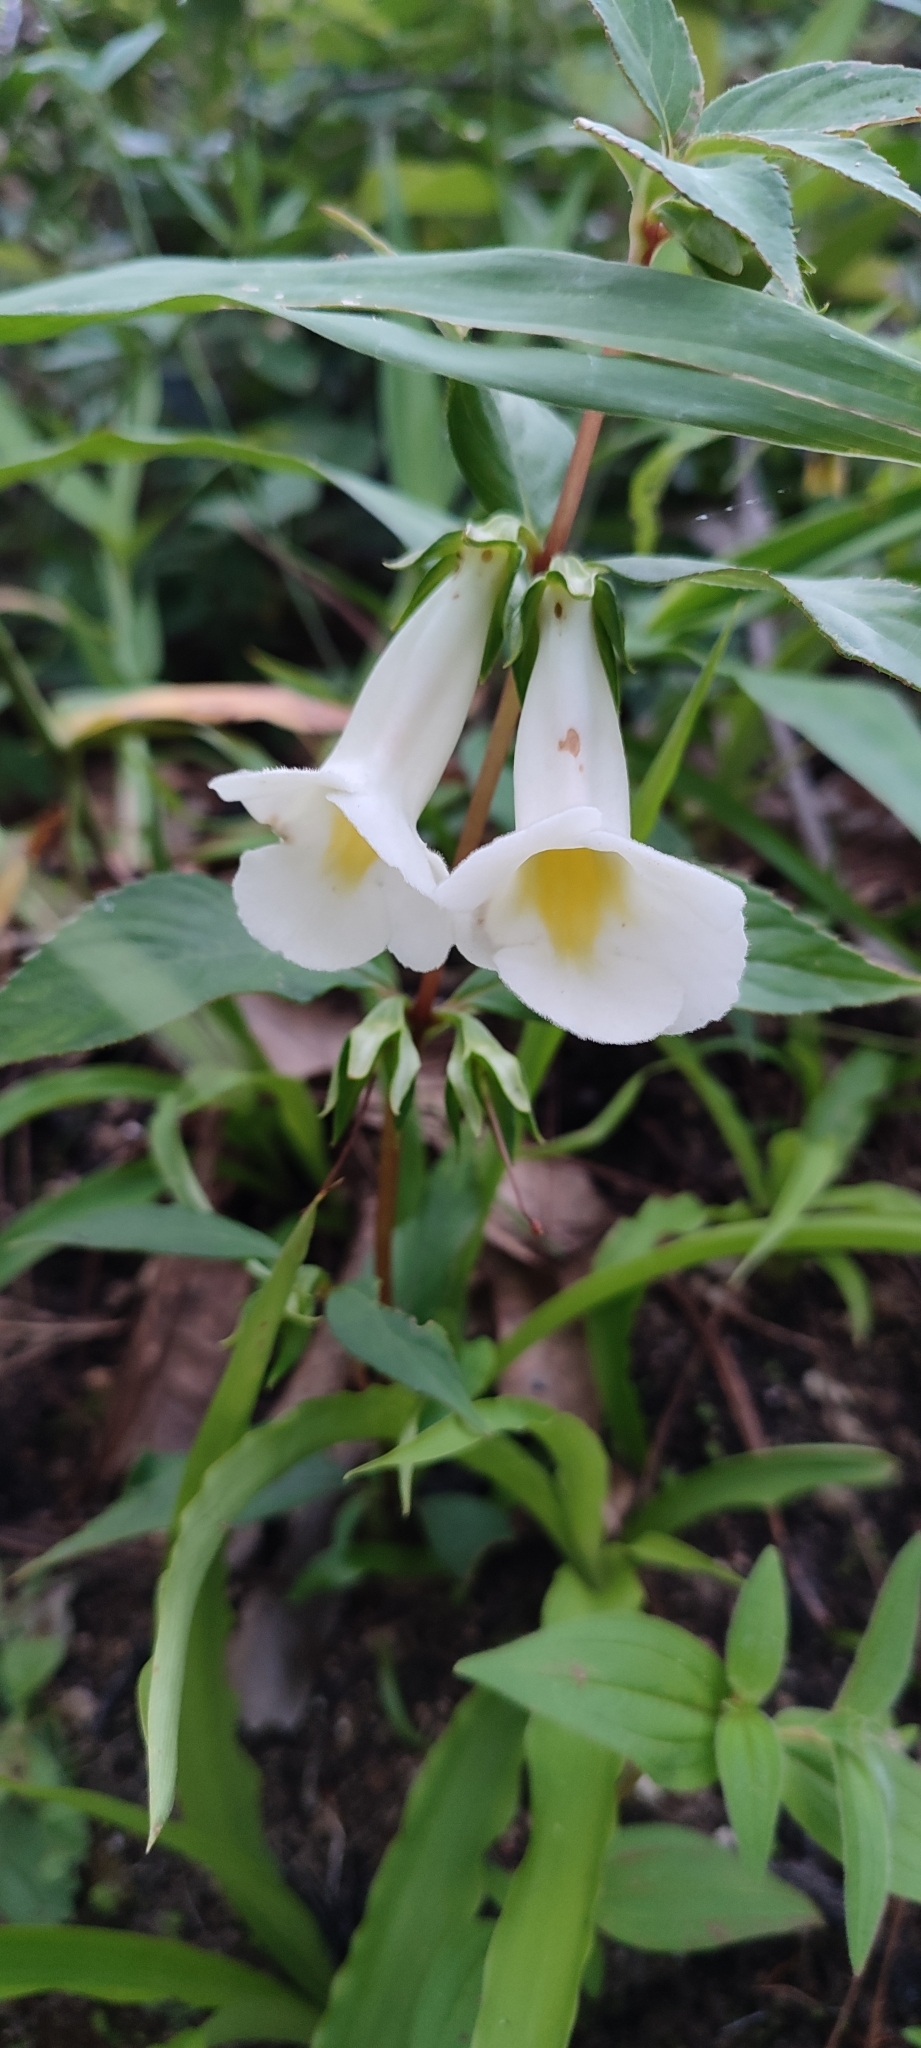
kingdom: Plantae
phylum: Tracheophyta
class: Magnoliopsida
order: Lamiales
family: Gesneriaceae
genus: Achimenes
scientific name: Achimenes glabrata
